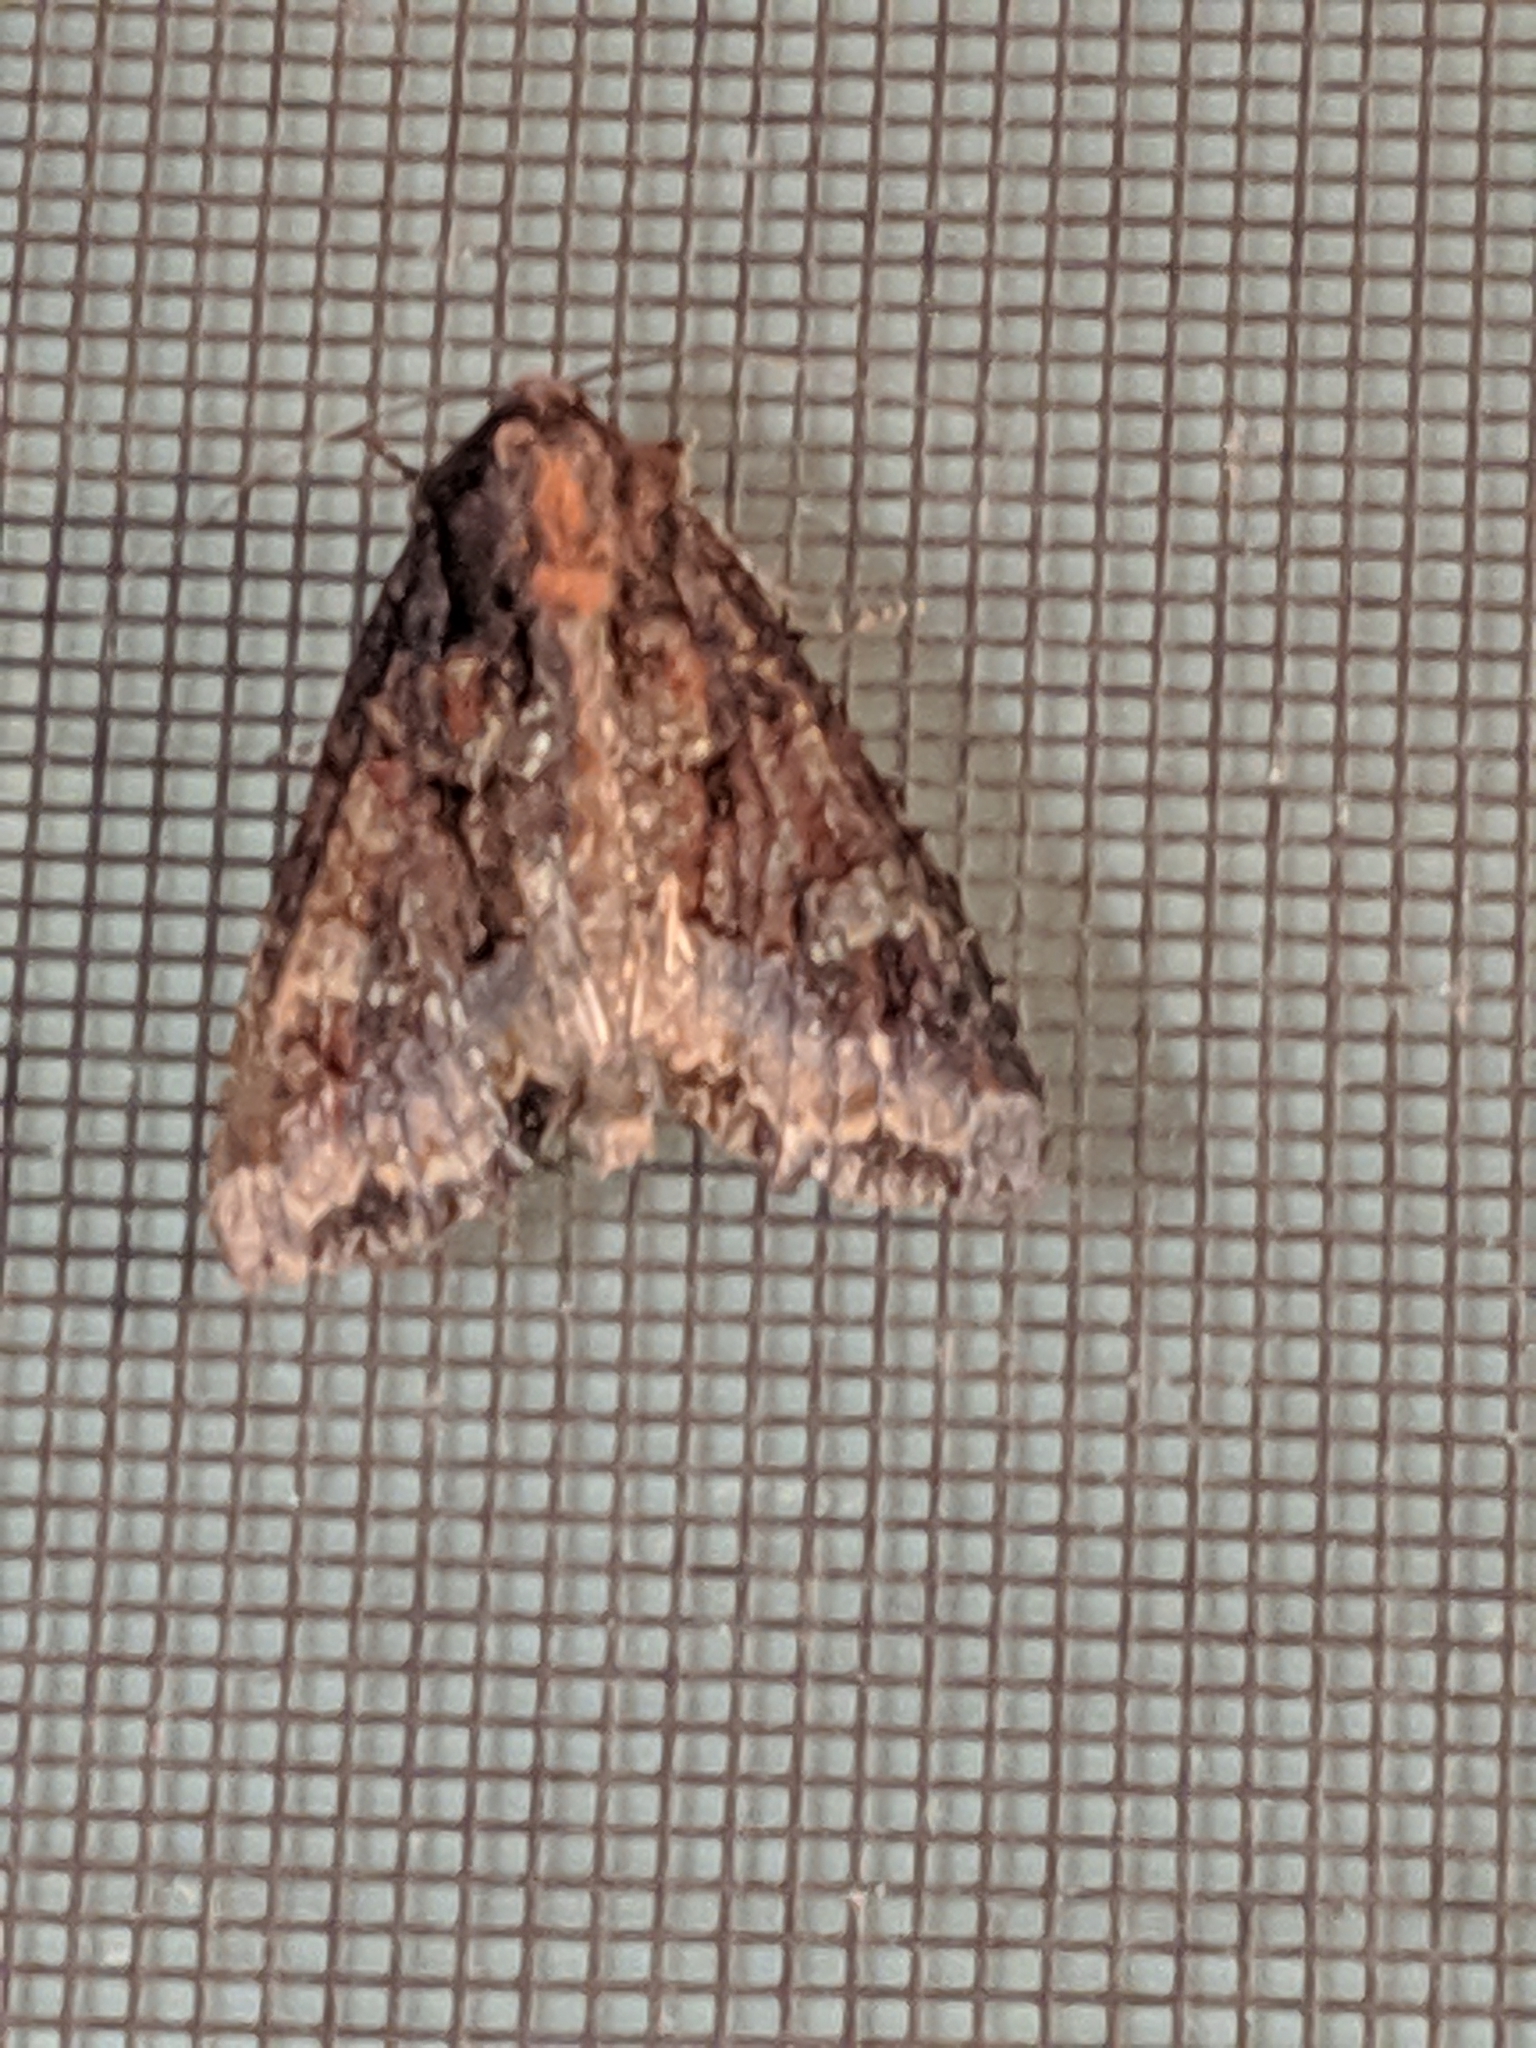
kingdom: Animalia
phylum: Arthropoda
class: Insecta
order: Lepidoptera
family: Noctuidae
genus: Apamea
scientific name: Apamea amputatrix
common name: Yellow-headed cutworm moth
